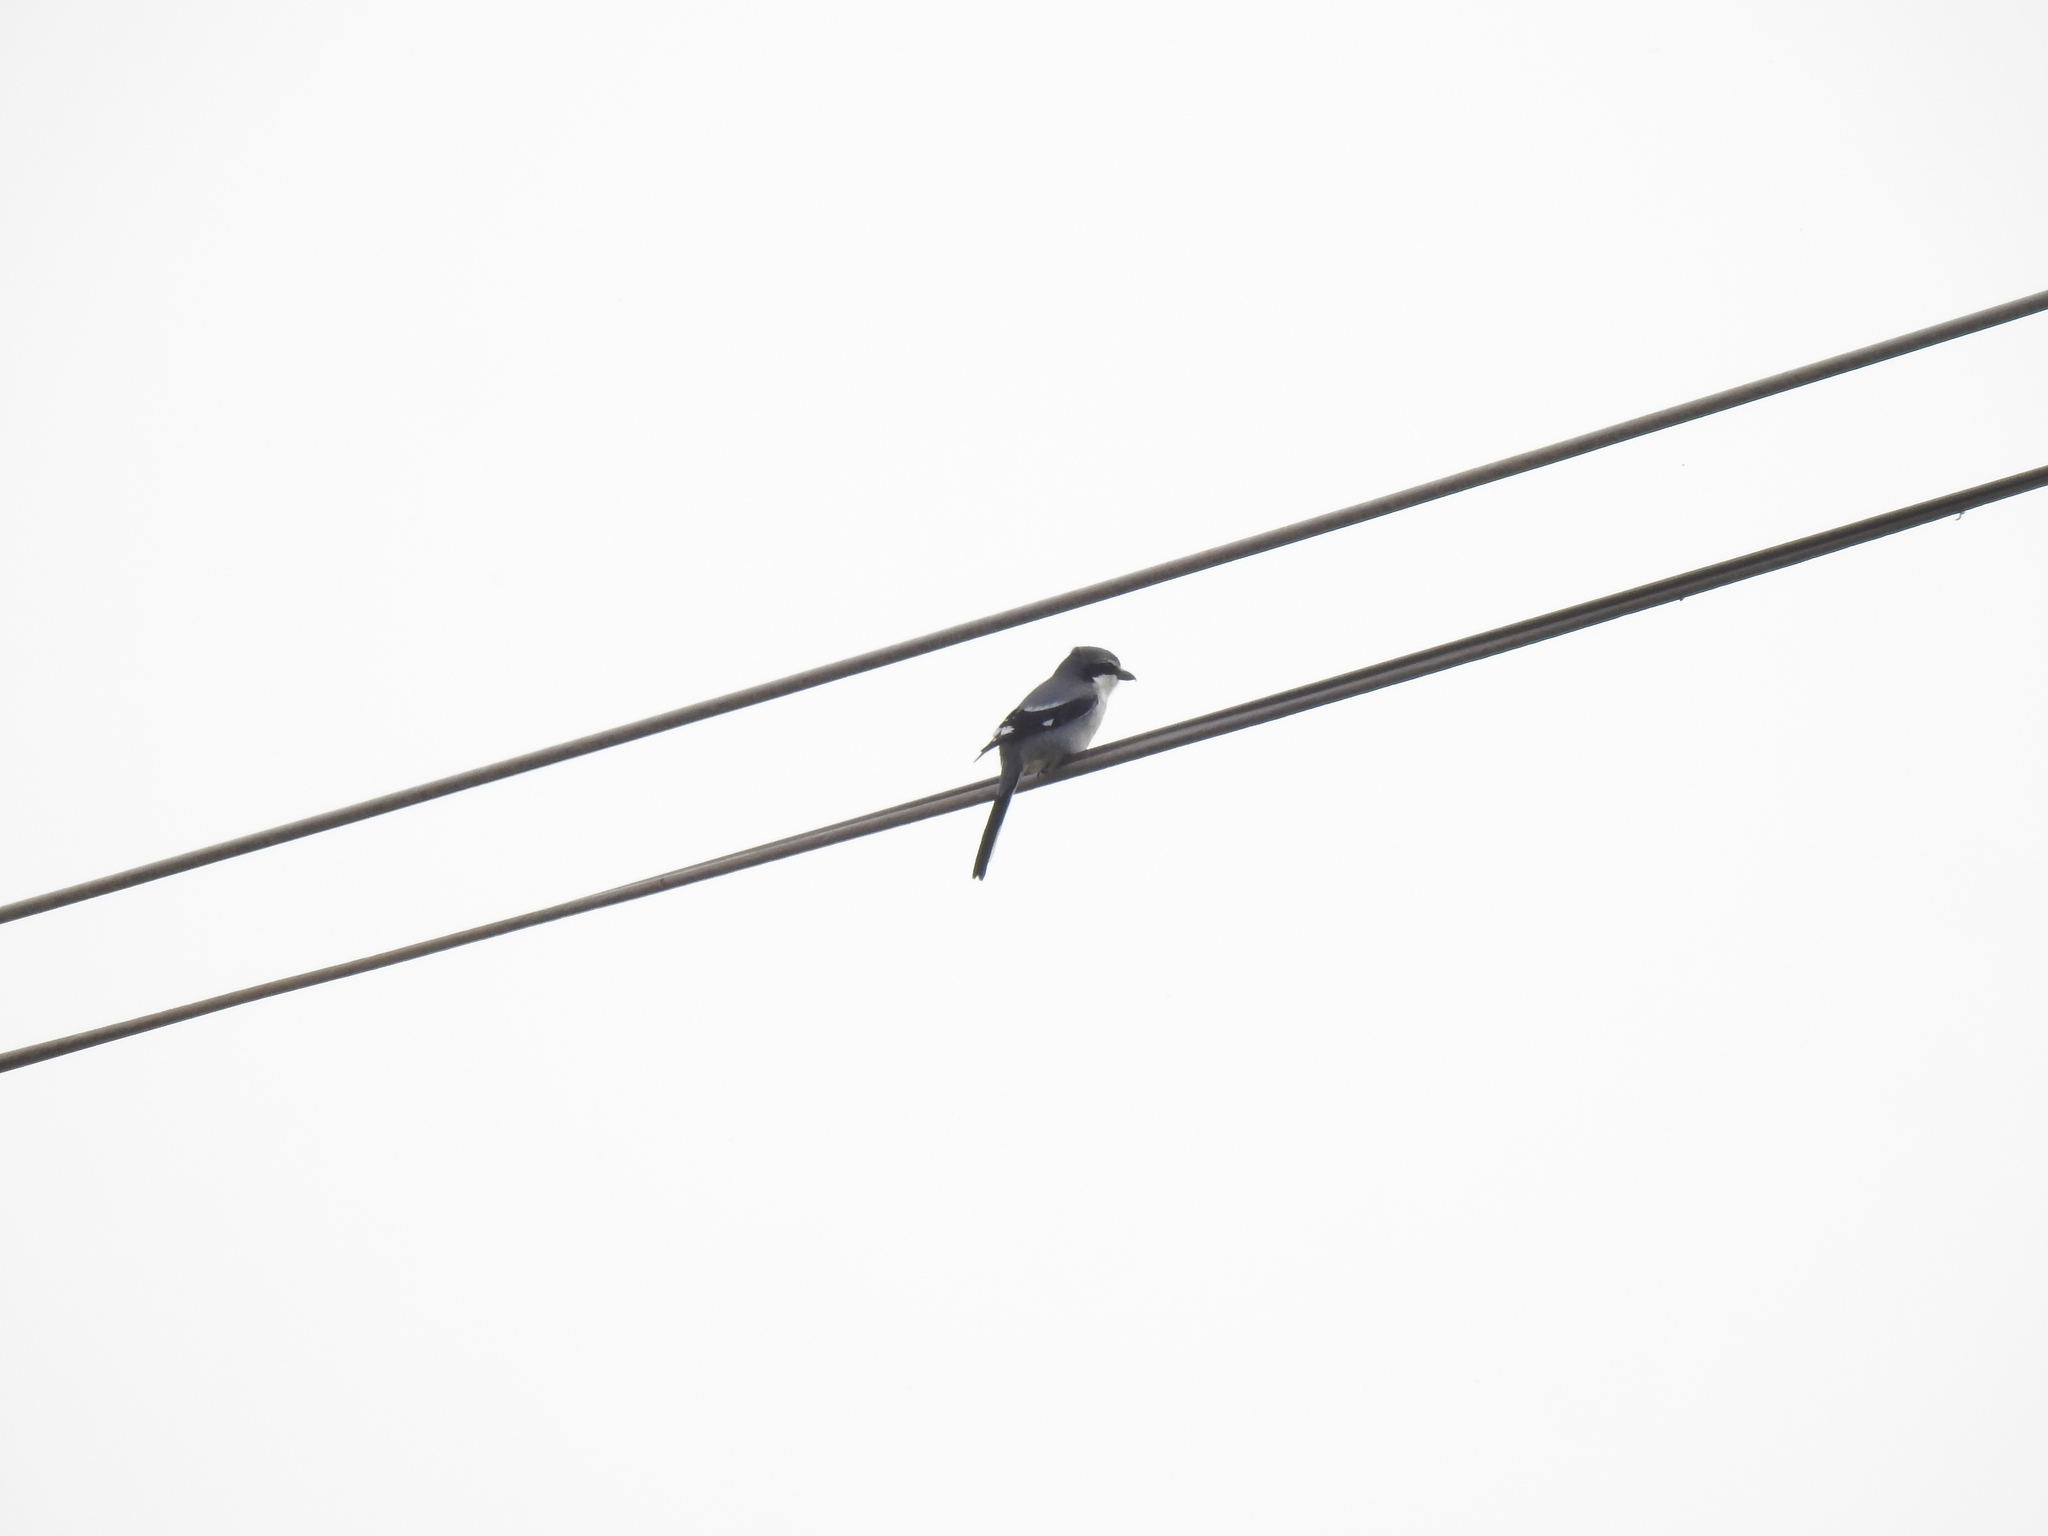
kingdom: Animalia
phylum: Chordata
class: Aves
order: Passeriformes
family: Laniidae
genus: Lanius
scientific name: Lanius meridionalis
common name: Iberian grey shrike
